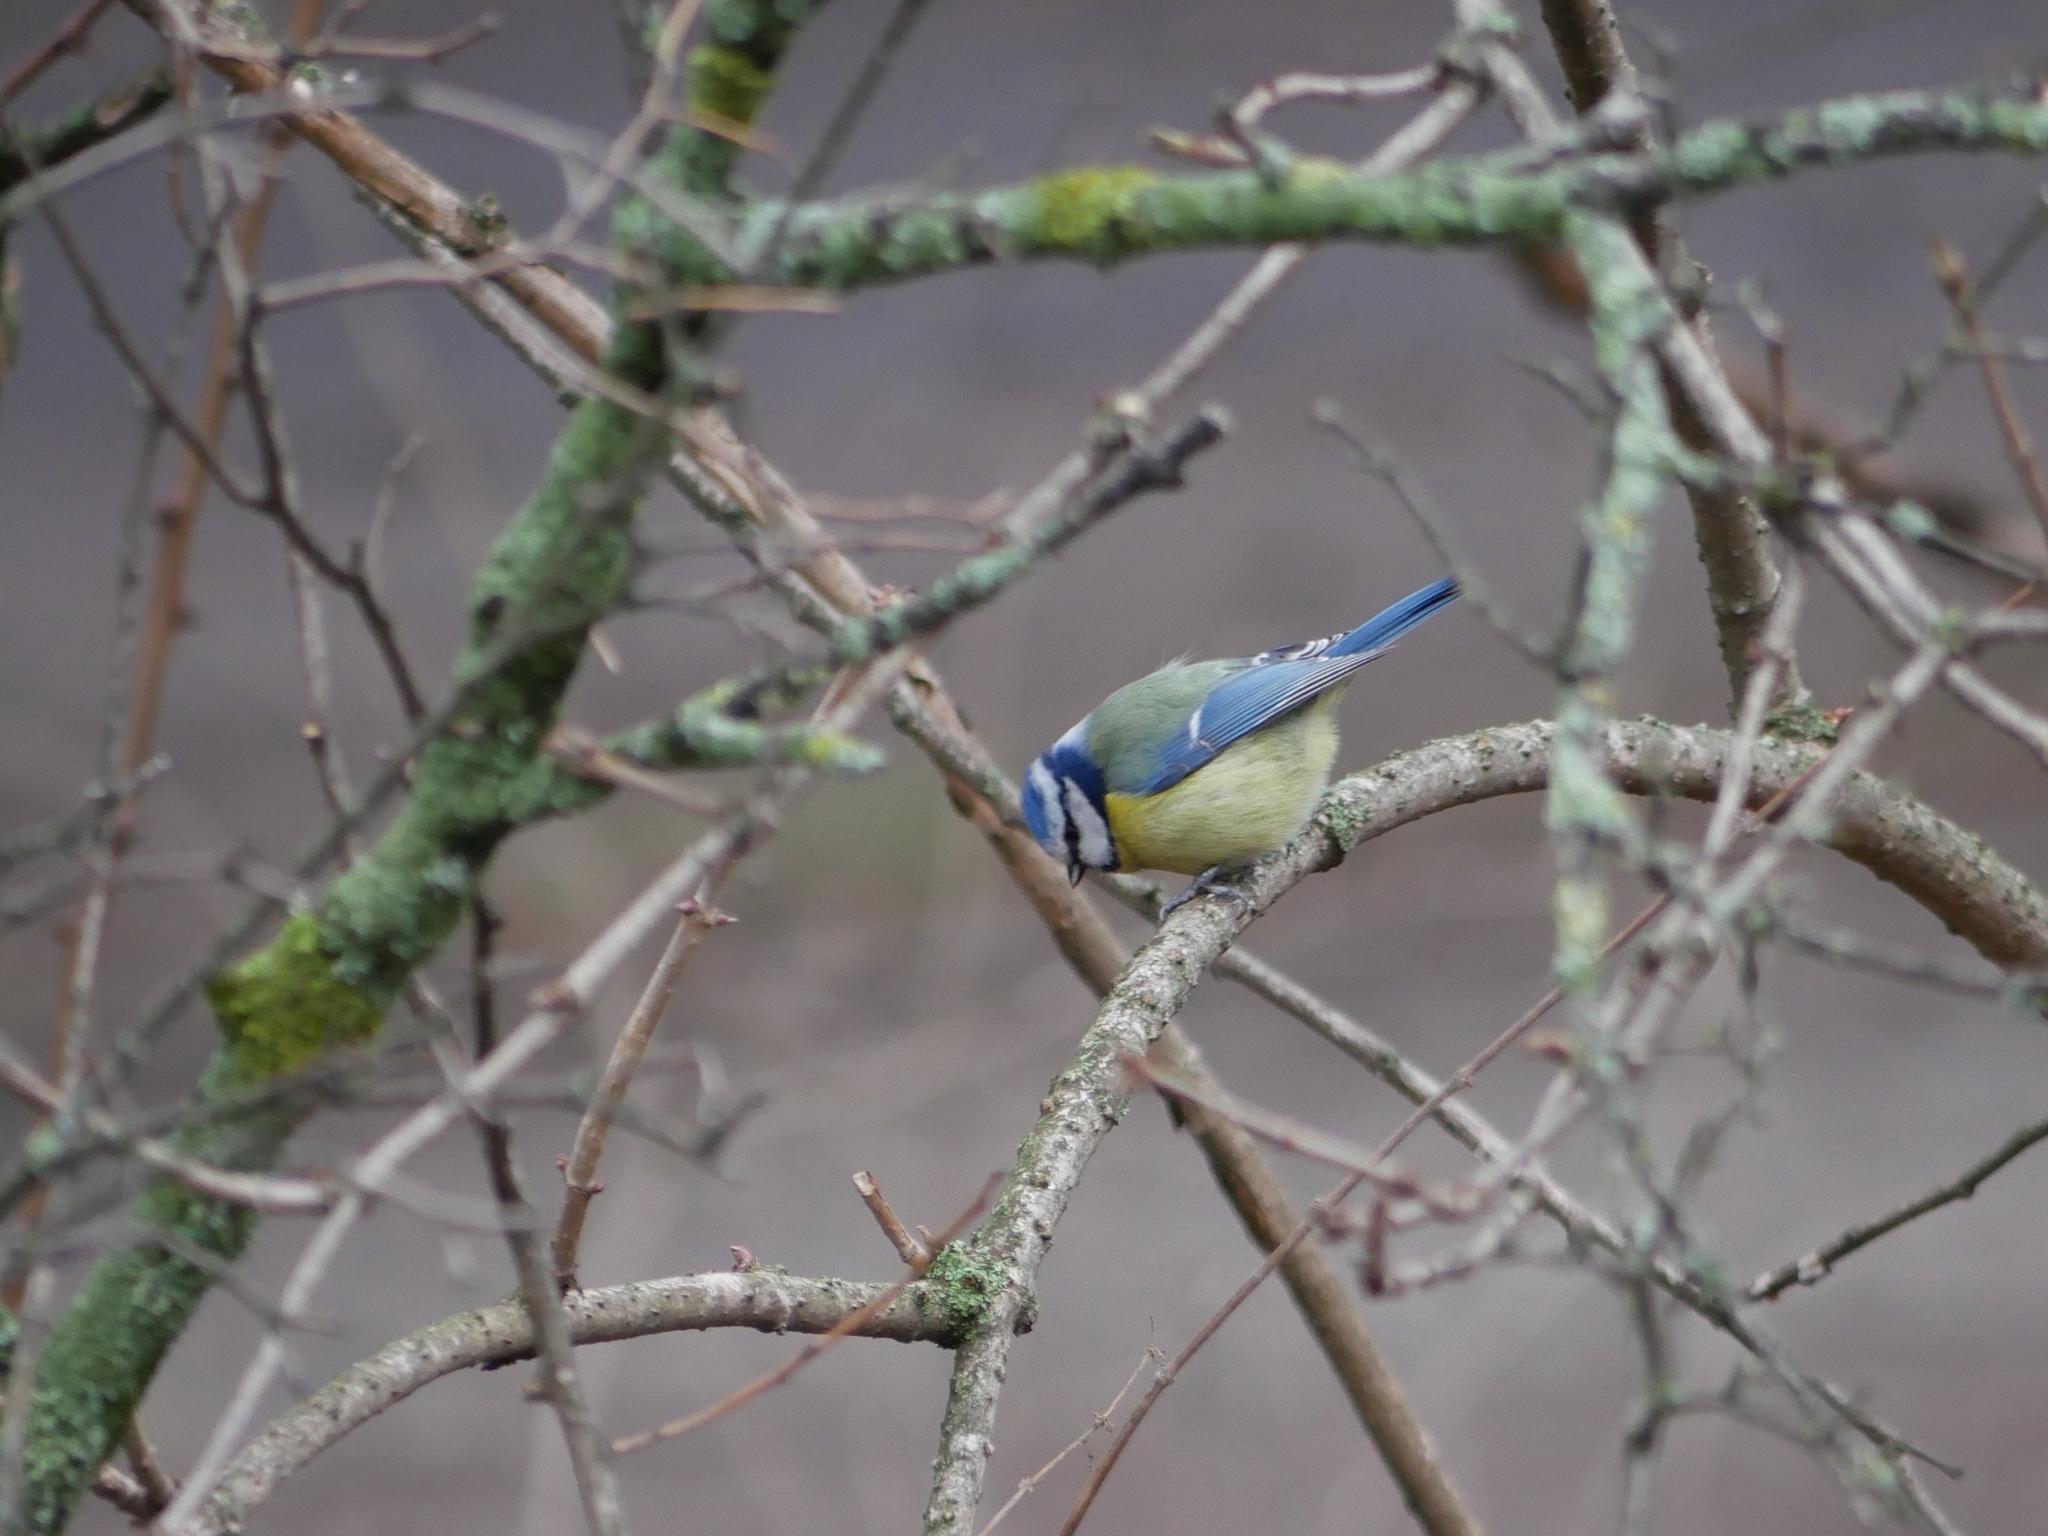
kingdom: Animalia
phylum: Chordata
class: Aves
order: Passeriformes
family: Paridae
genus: Cyanistes
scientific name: Cyanistes caeruleus
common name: Eurasian blue tit
